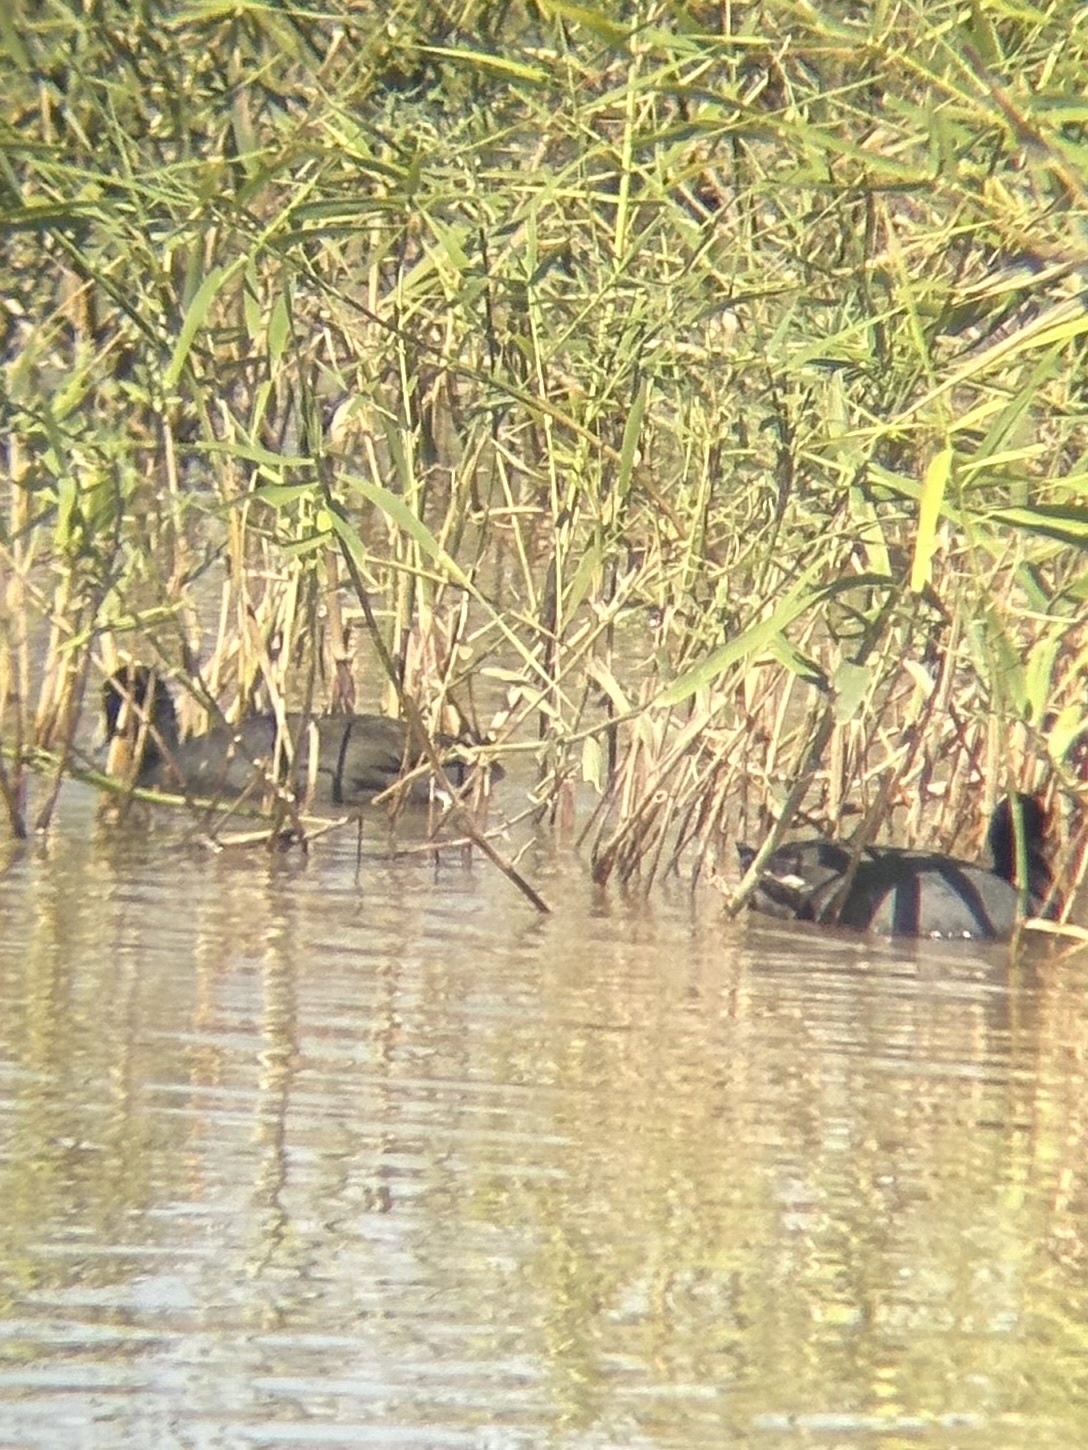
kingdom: Animalia
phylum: Chordata
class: Aves
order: Gruiformes
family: Rallidae
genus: Fulica
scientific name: Fulica americana
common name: American coot
